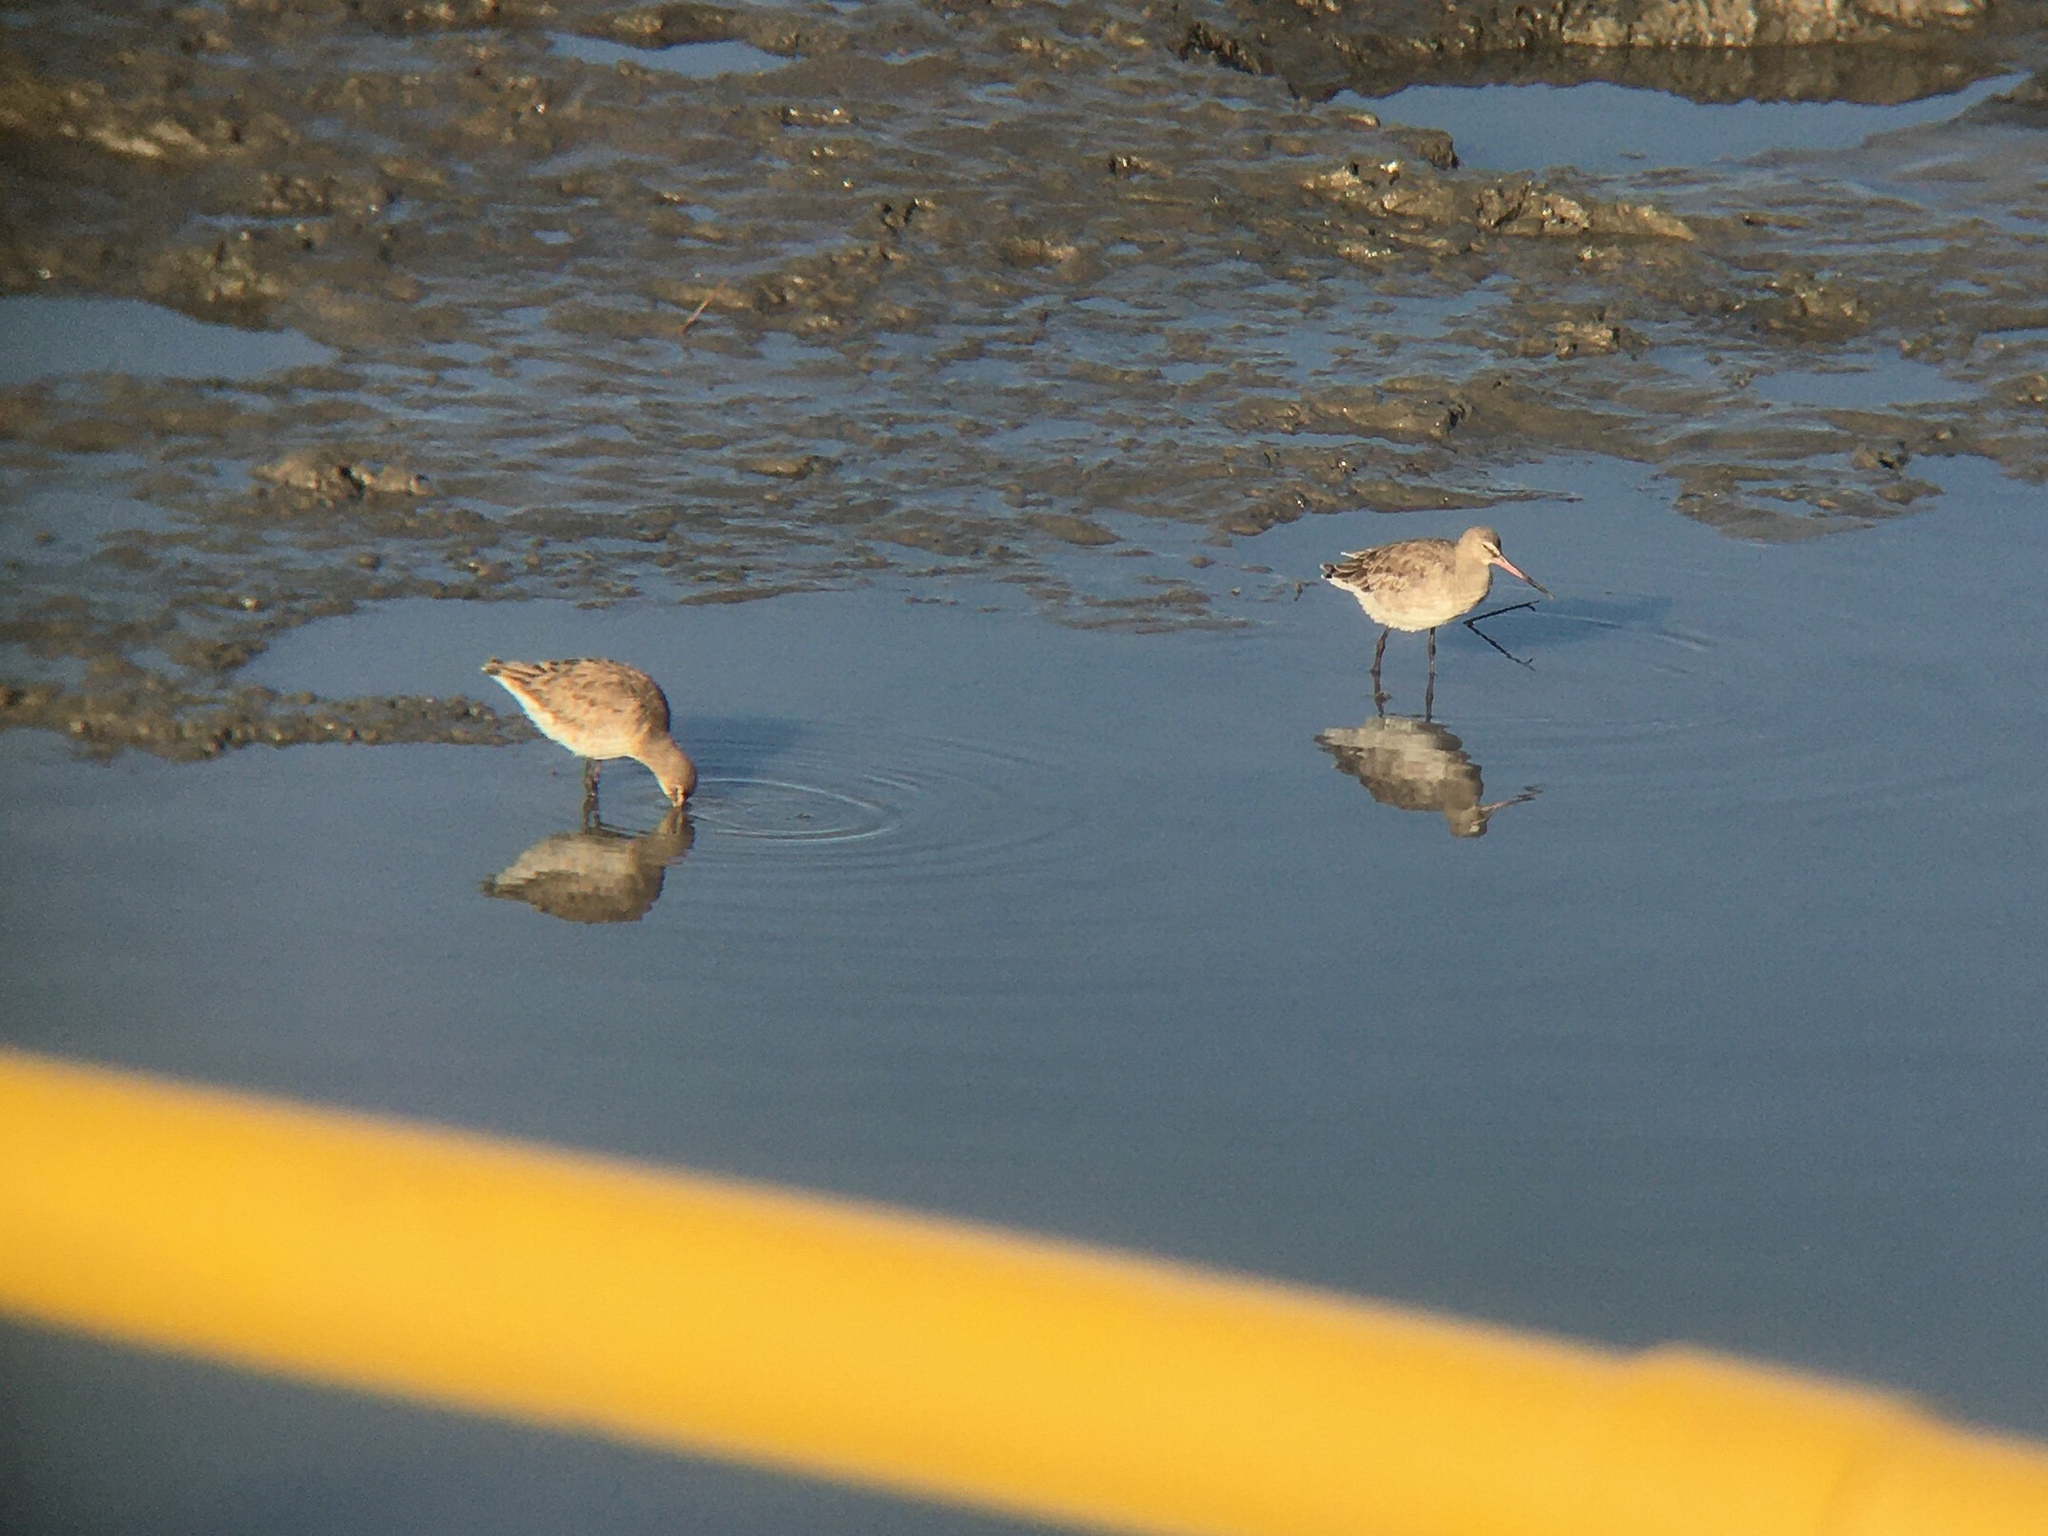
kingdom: Animalia
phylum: Chordata
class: Aves
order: Charadriiformes
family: Scolopacidae
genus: Limosa
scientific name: Limosa haemastica
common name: Hudsonian godwit
